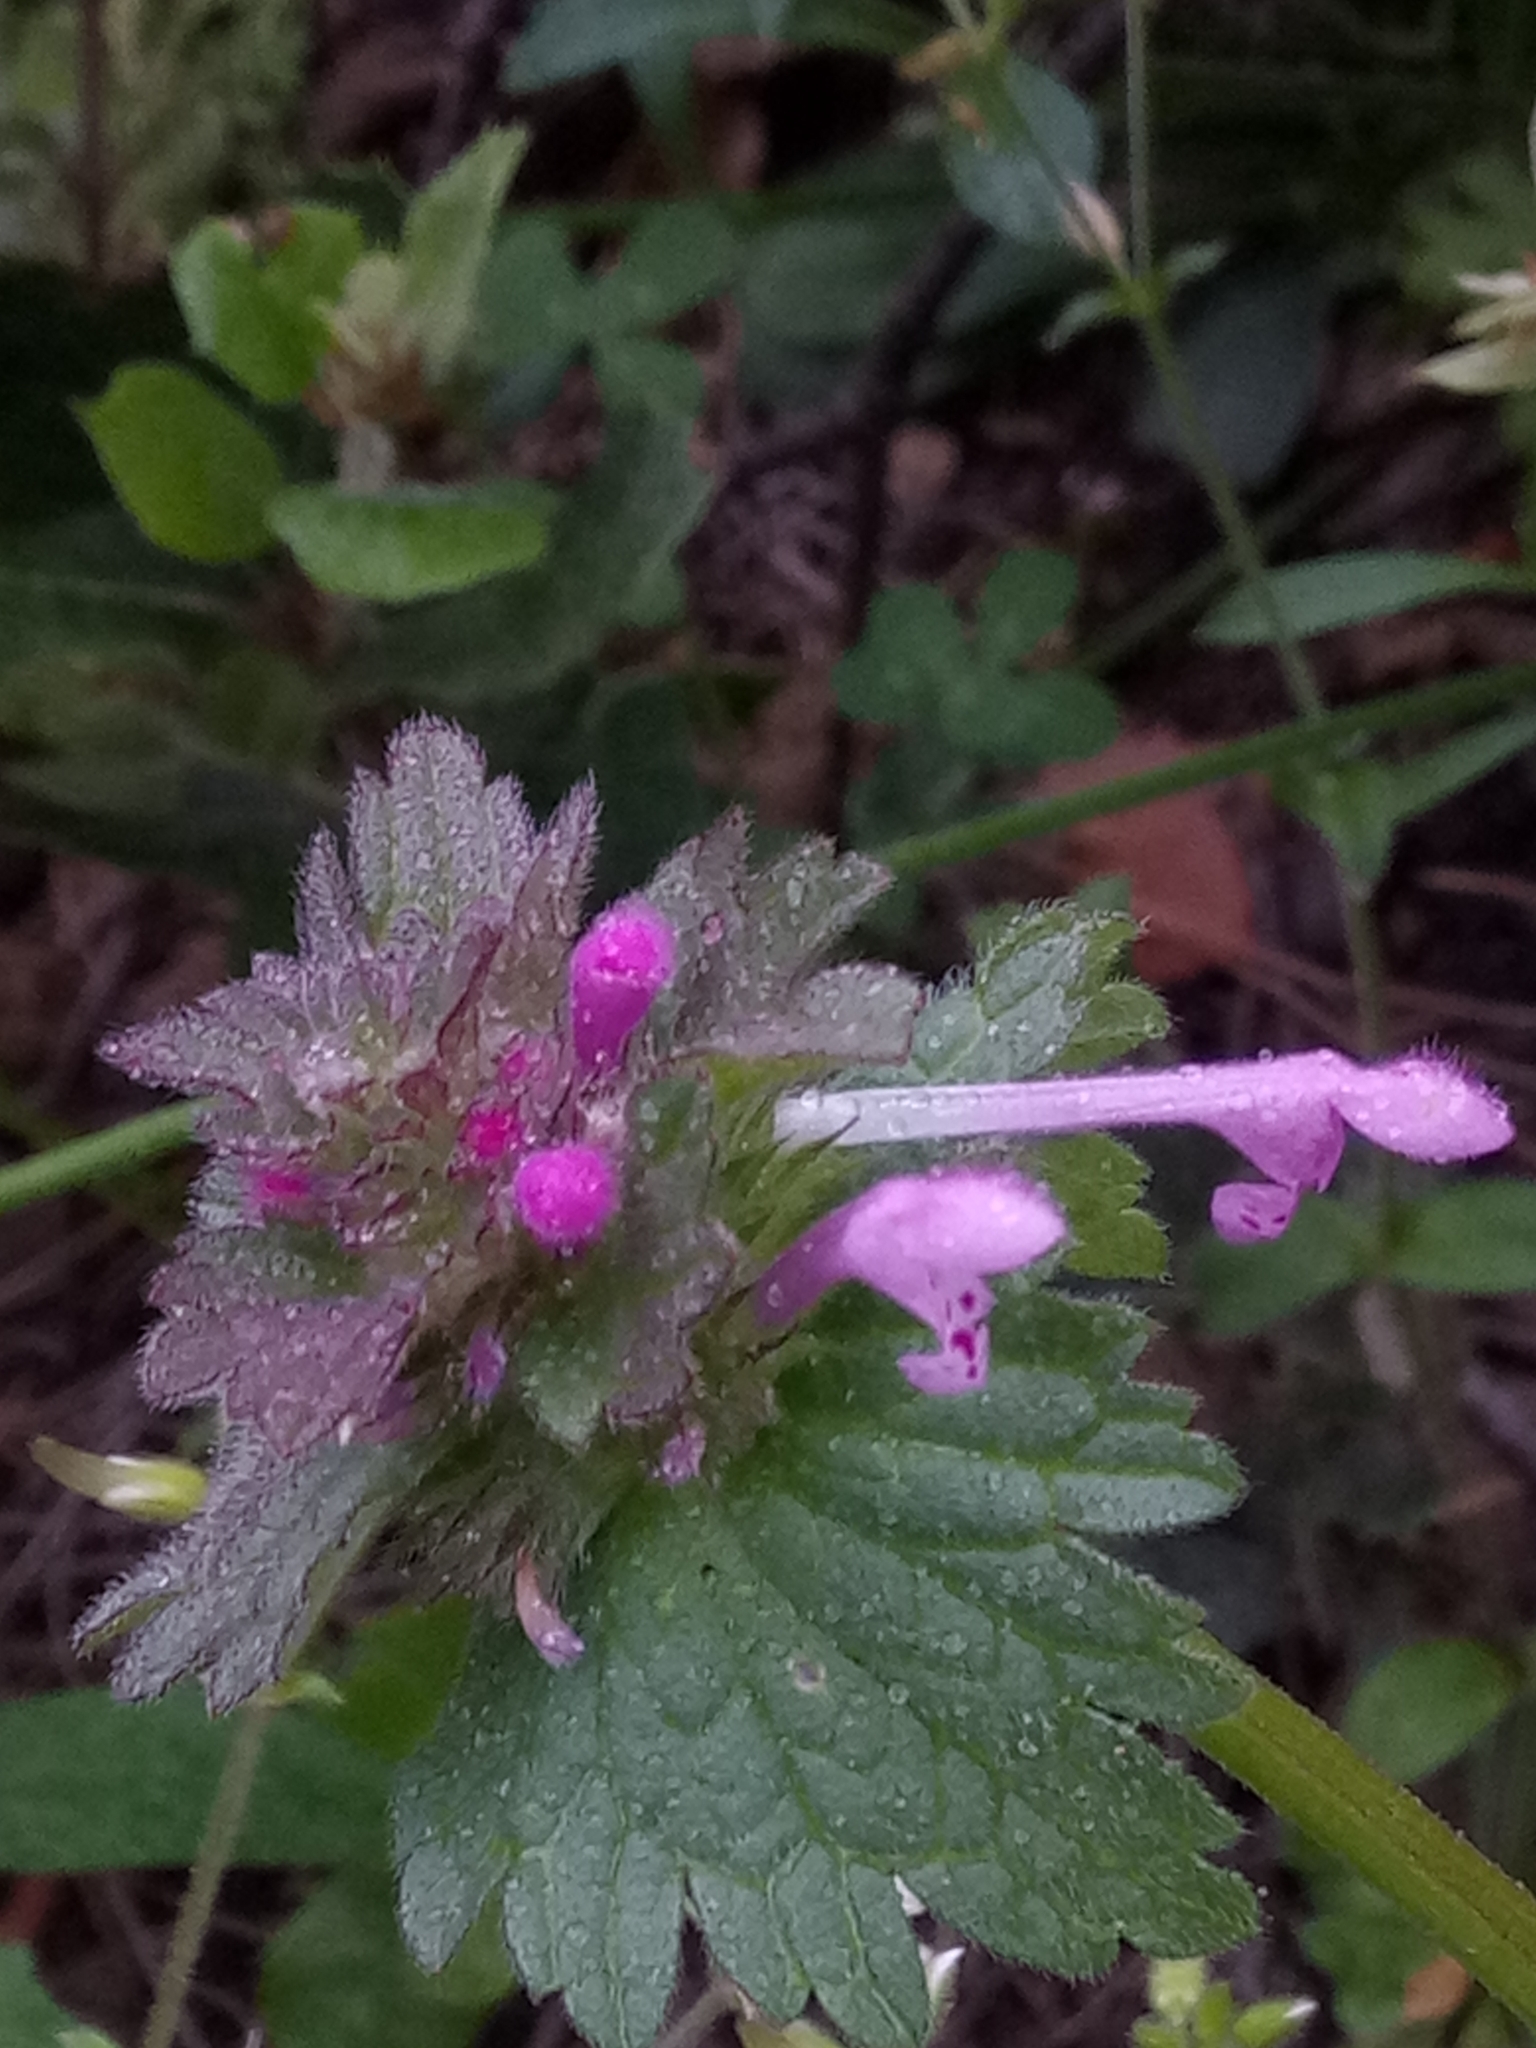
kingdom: Plantae
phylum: Tracheophyta
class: Magnoliopsida
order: Lamiales
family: Lamiaceae
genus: Lamium
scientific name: Lamium hybridum
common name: Cut-leaved dead-nettle
